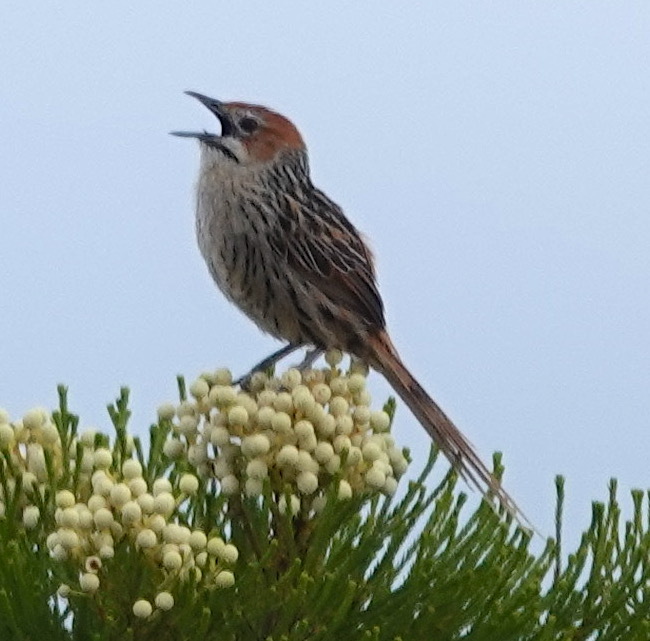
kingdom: Animalia
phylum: Chordata
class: Aves
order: Passeriformes
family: Macrosphenidae
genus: Sphenoeacus
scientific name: Sphenoeacus afer
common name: Cape grassbird
